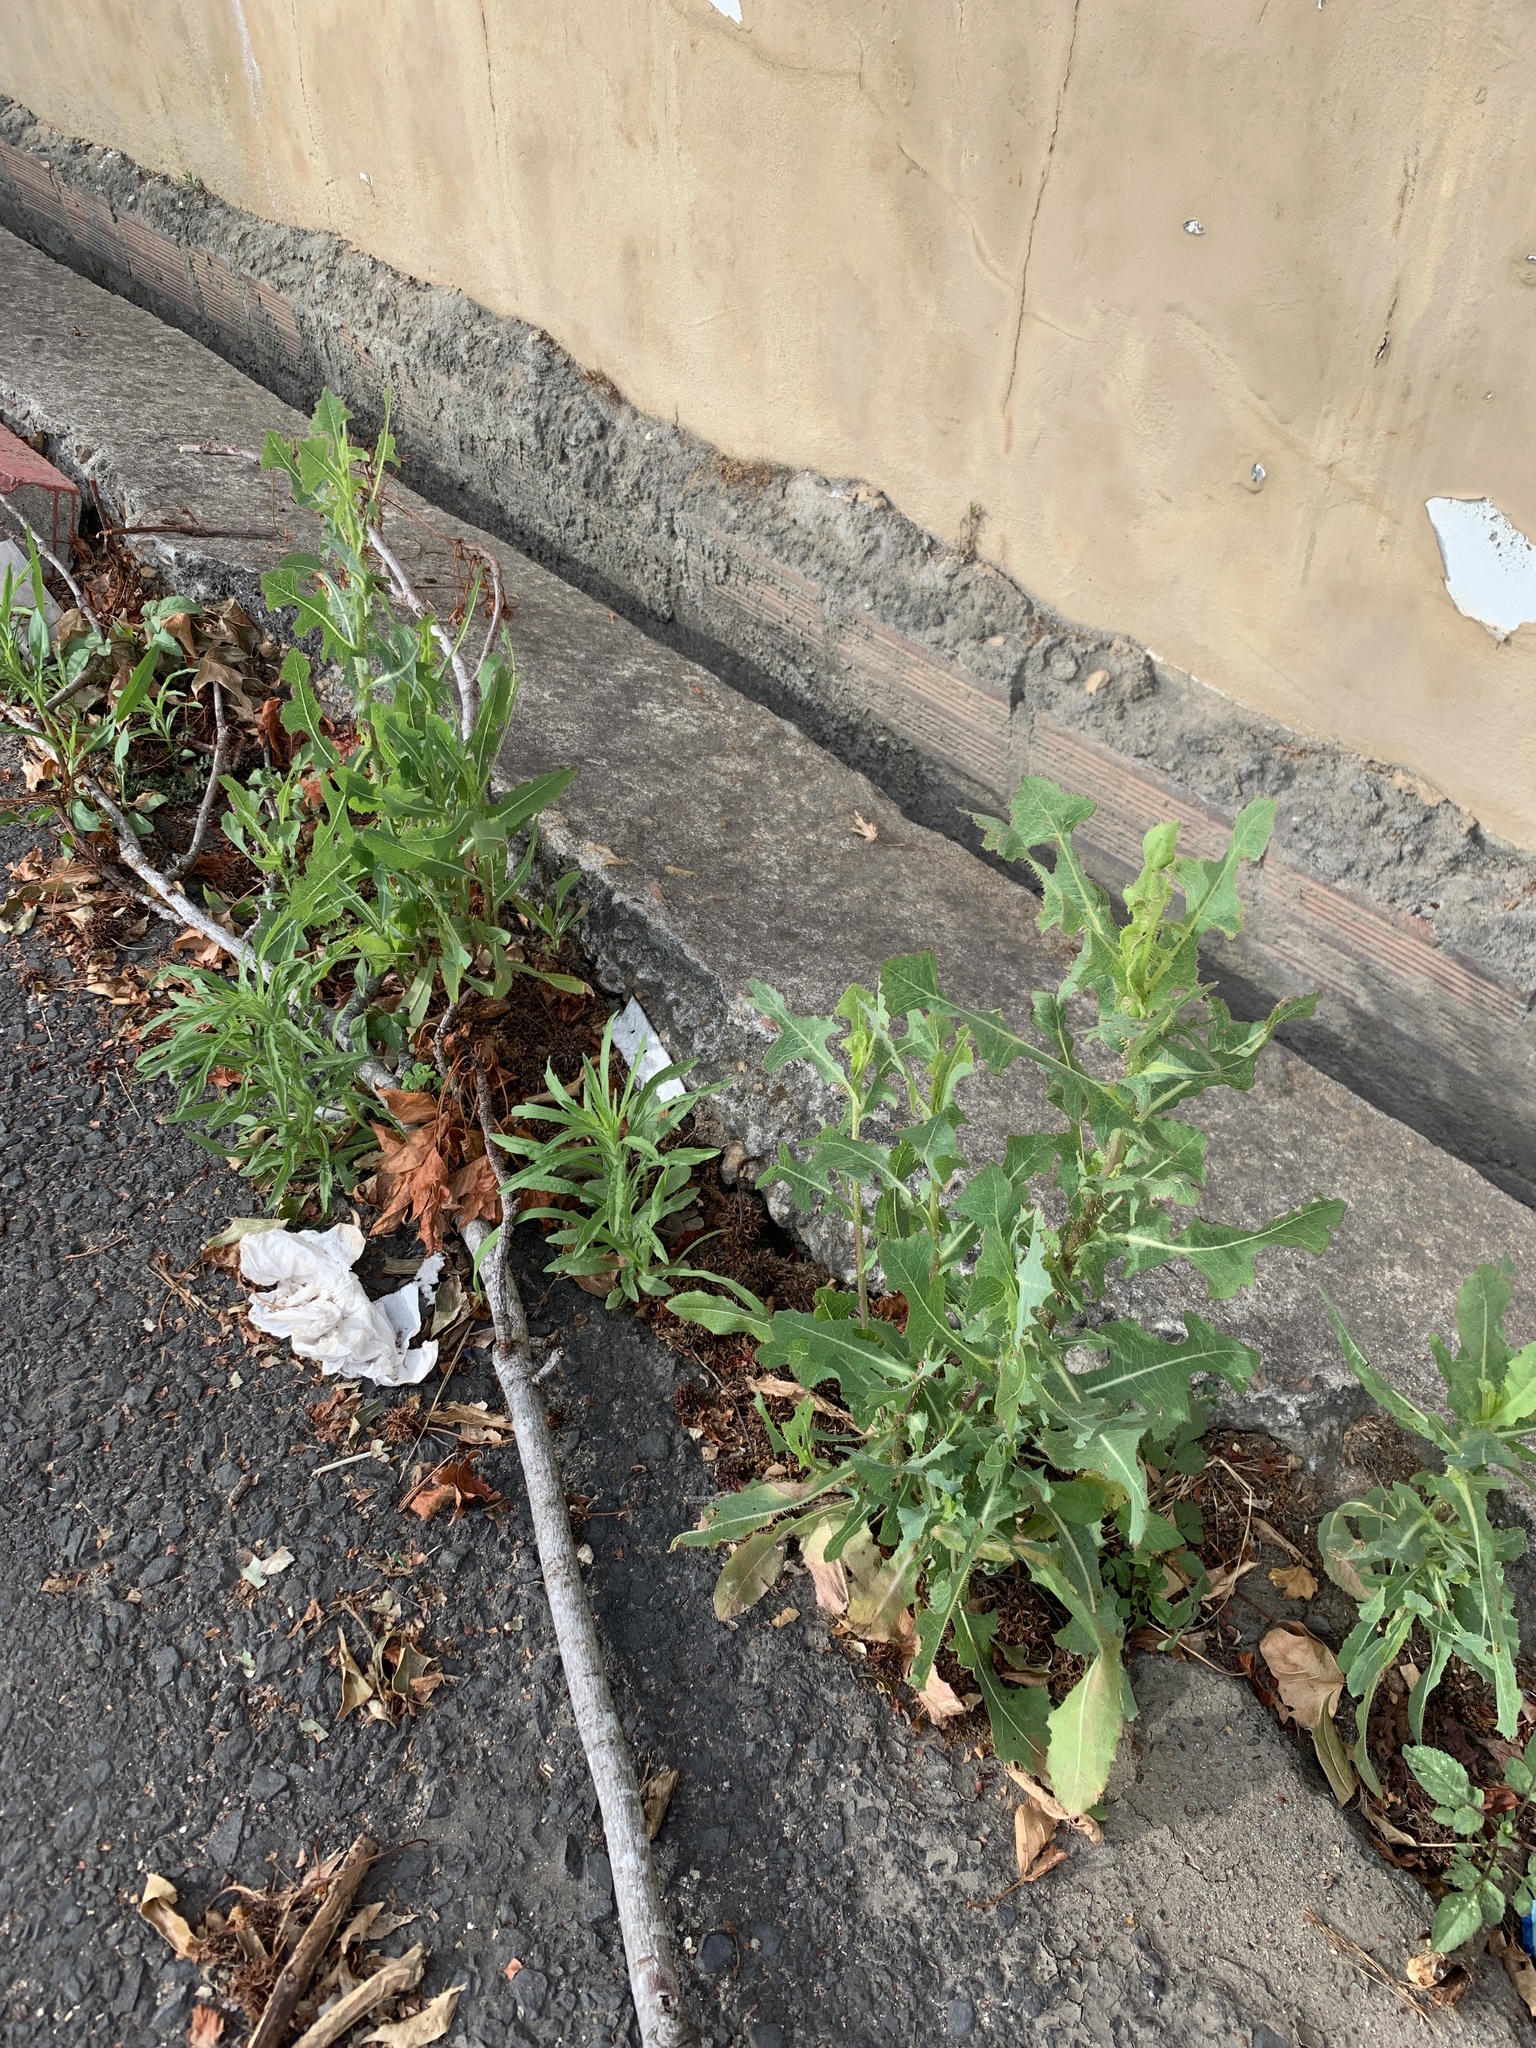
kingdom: Plantae
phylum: Tracheophyta
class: Magnoliopsida
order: Asterales
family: Asteraceae
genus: Lactuca
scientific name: Lactuca serriola
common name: Prickly lettuce
